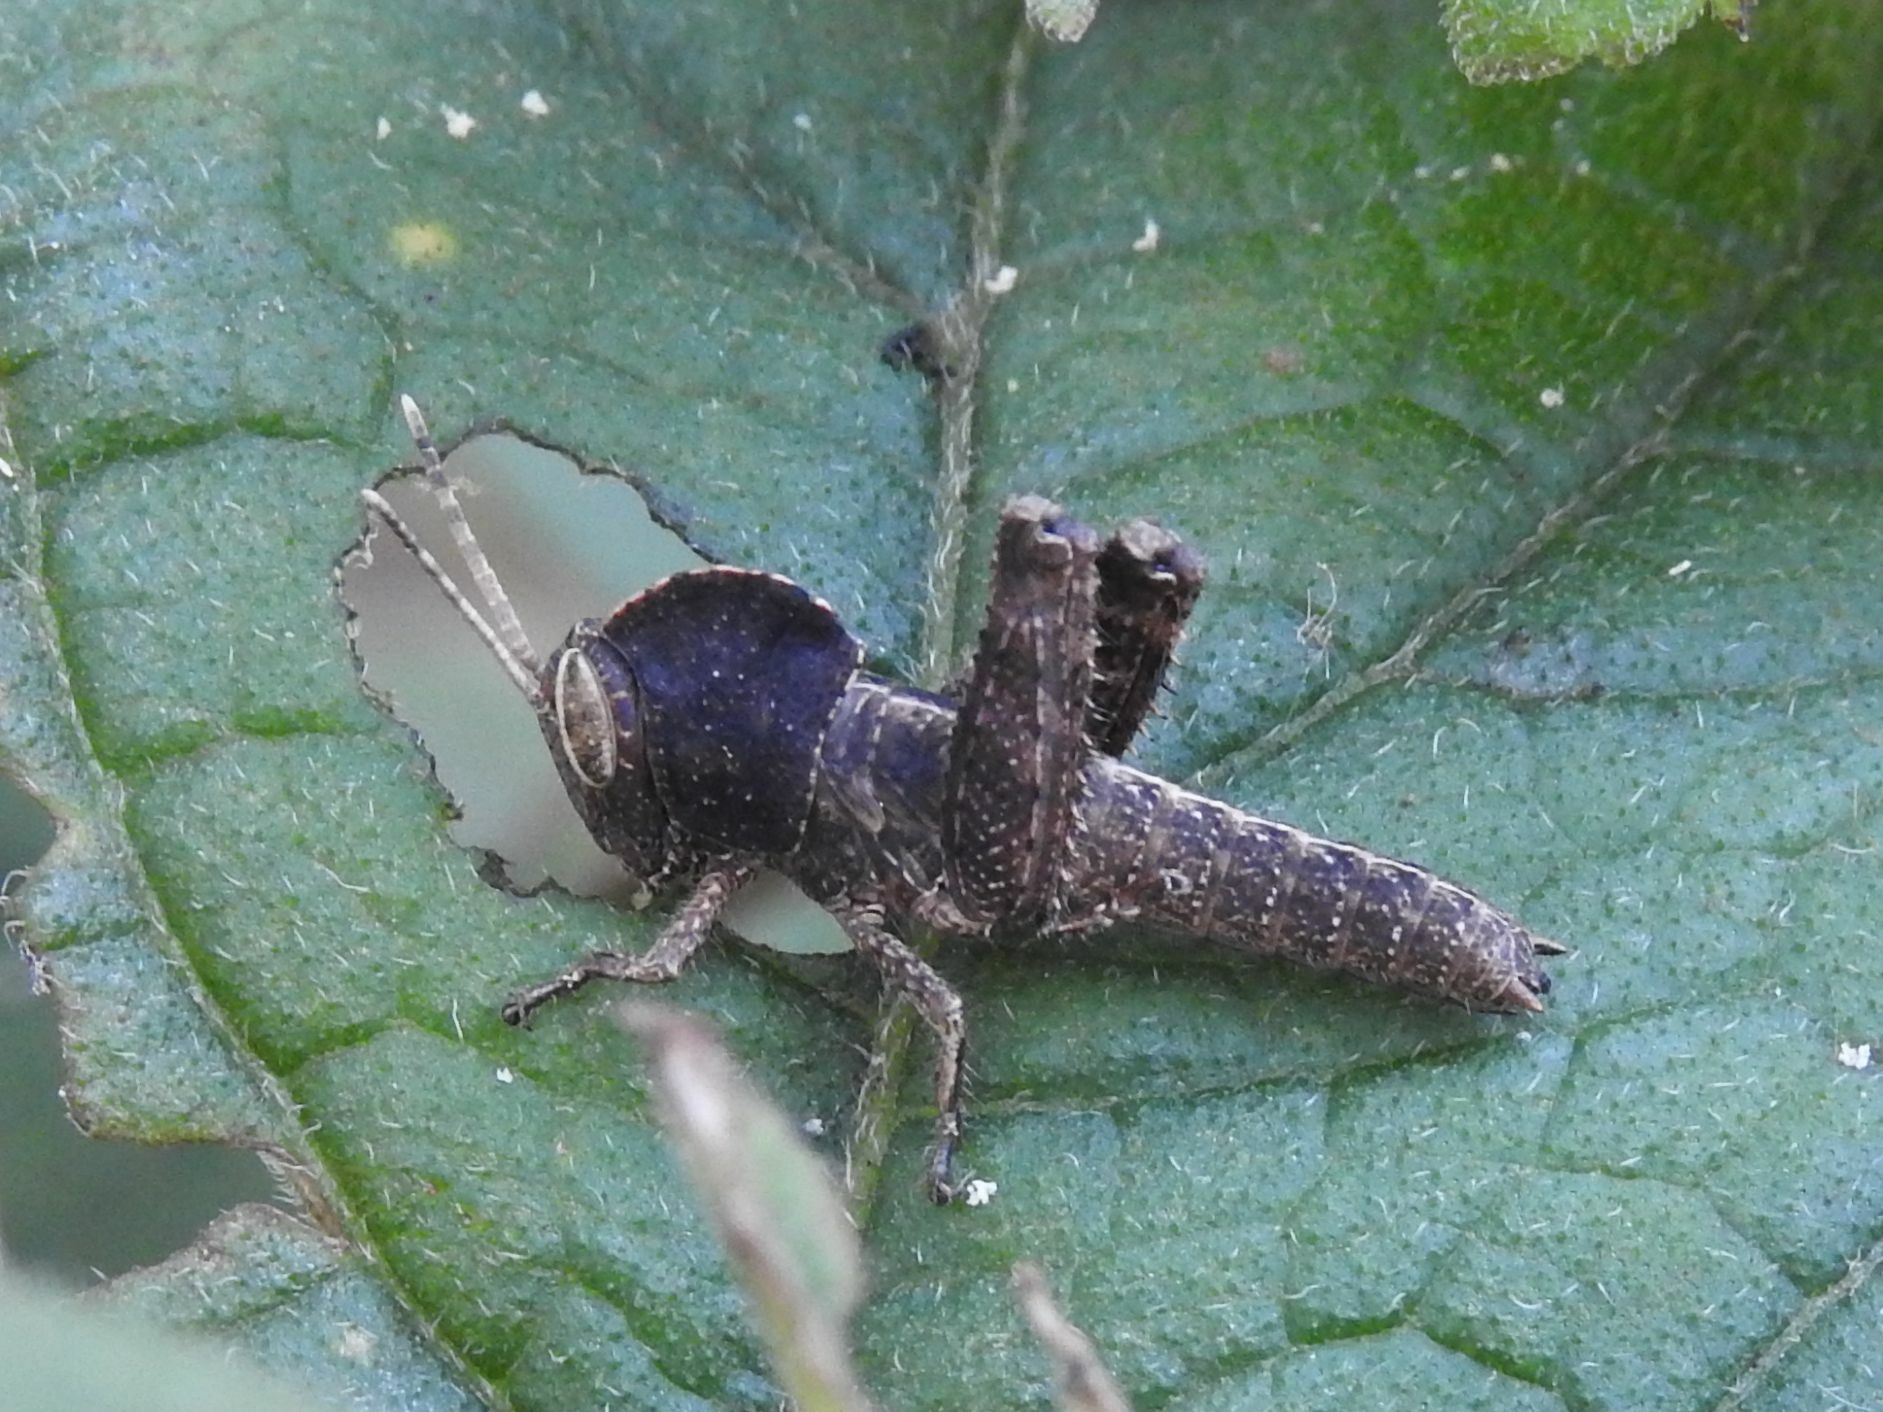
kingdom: Animalia
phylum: Arthropoda
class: Insecta
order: Orthoptera
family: Acrididae
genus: Abisares
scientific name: Abisares viridipenne
